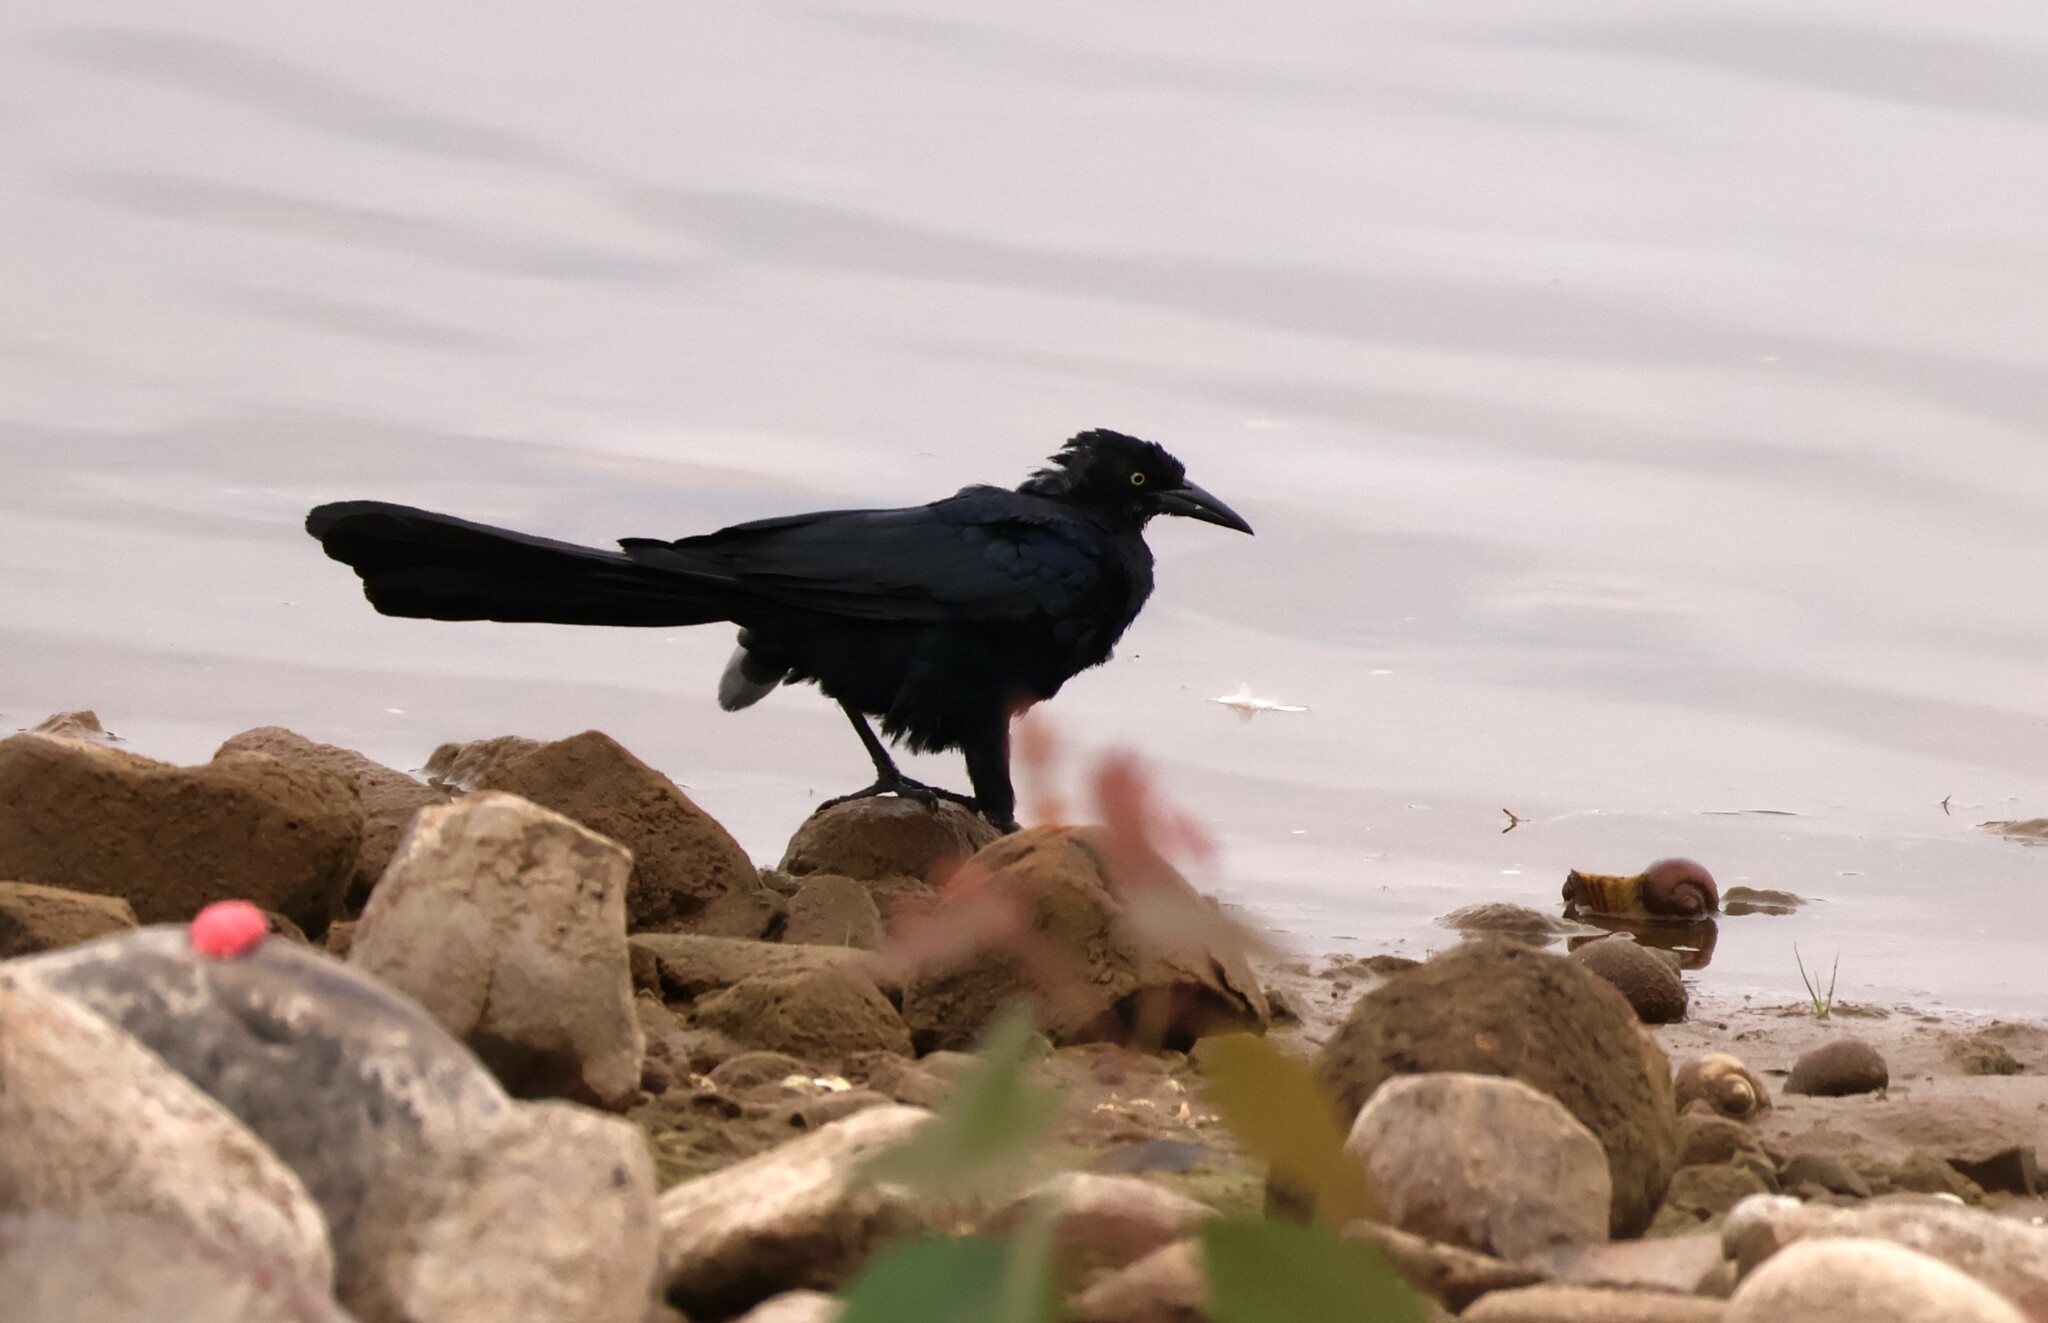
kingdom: Animalia
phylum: Chordata
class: Aves
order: Passeriformes
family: Icteridae
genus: Quiscalus
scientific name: Quiscalus mexicanus
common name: Great-tailed grackle
